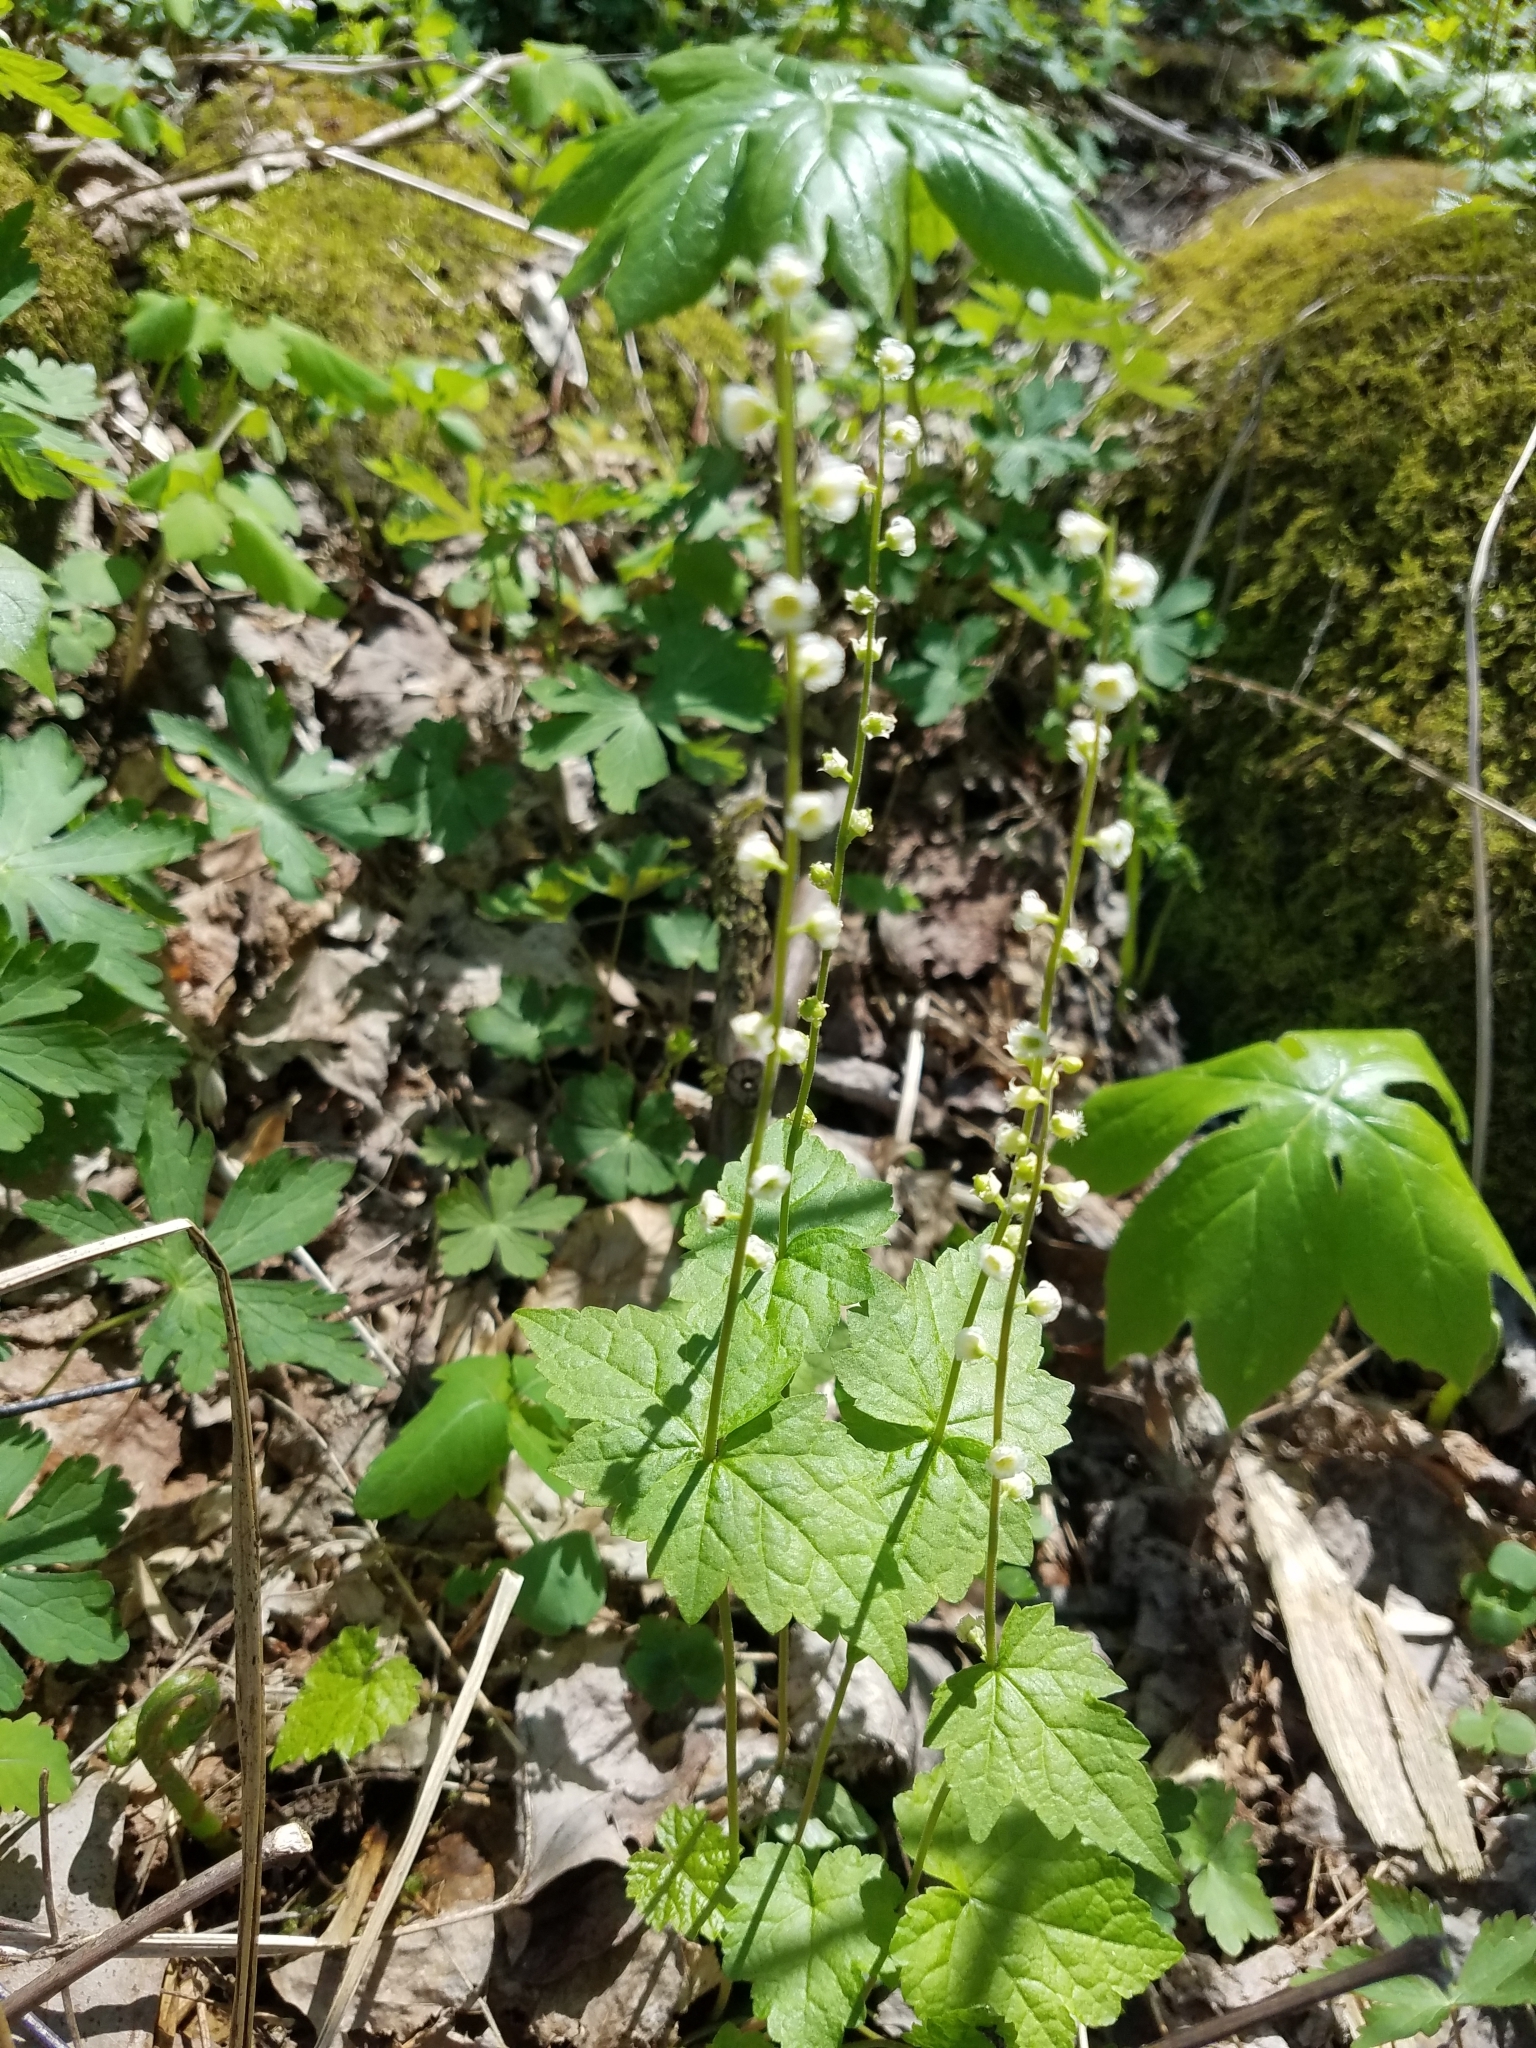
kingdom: Plantae
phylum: Tracheophyta
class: Magnoliopsida
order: Saxifragales
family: Saxifragaceae
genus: Mitella
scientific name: Mitella diphylla
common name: Coolwort
